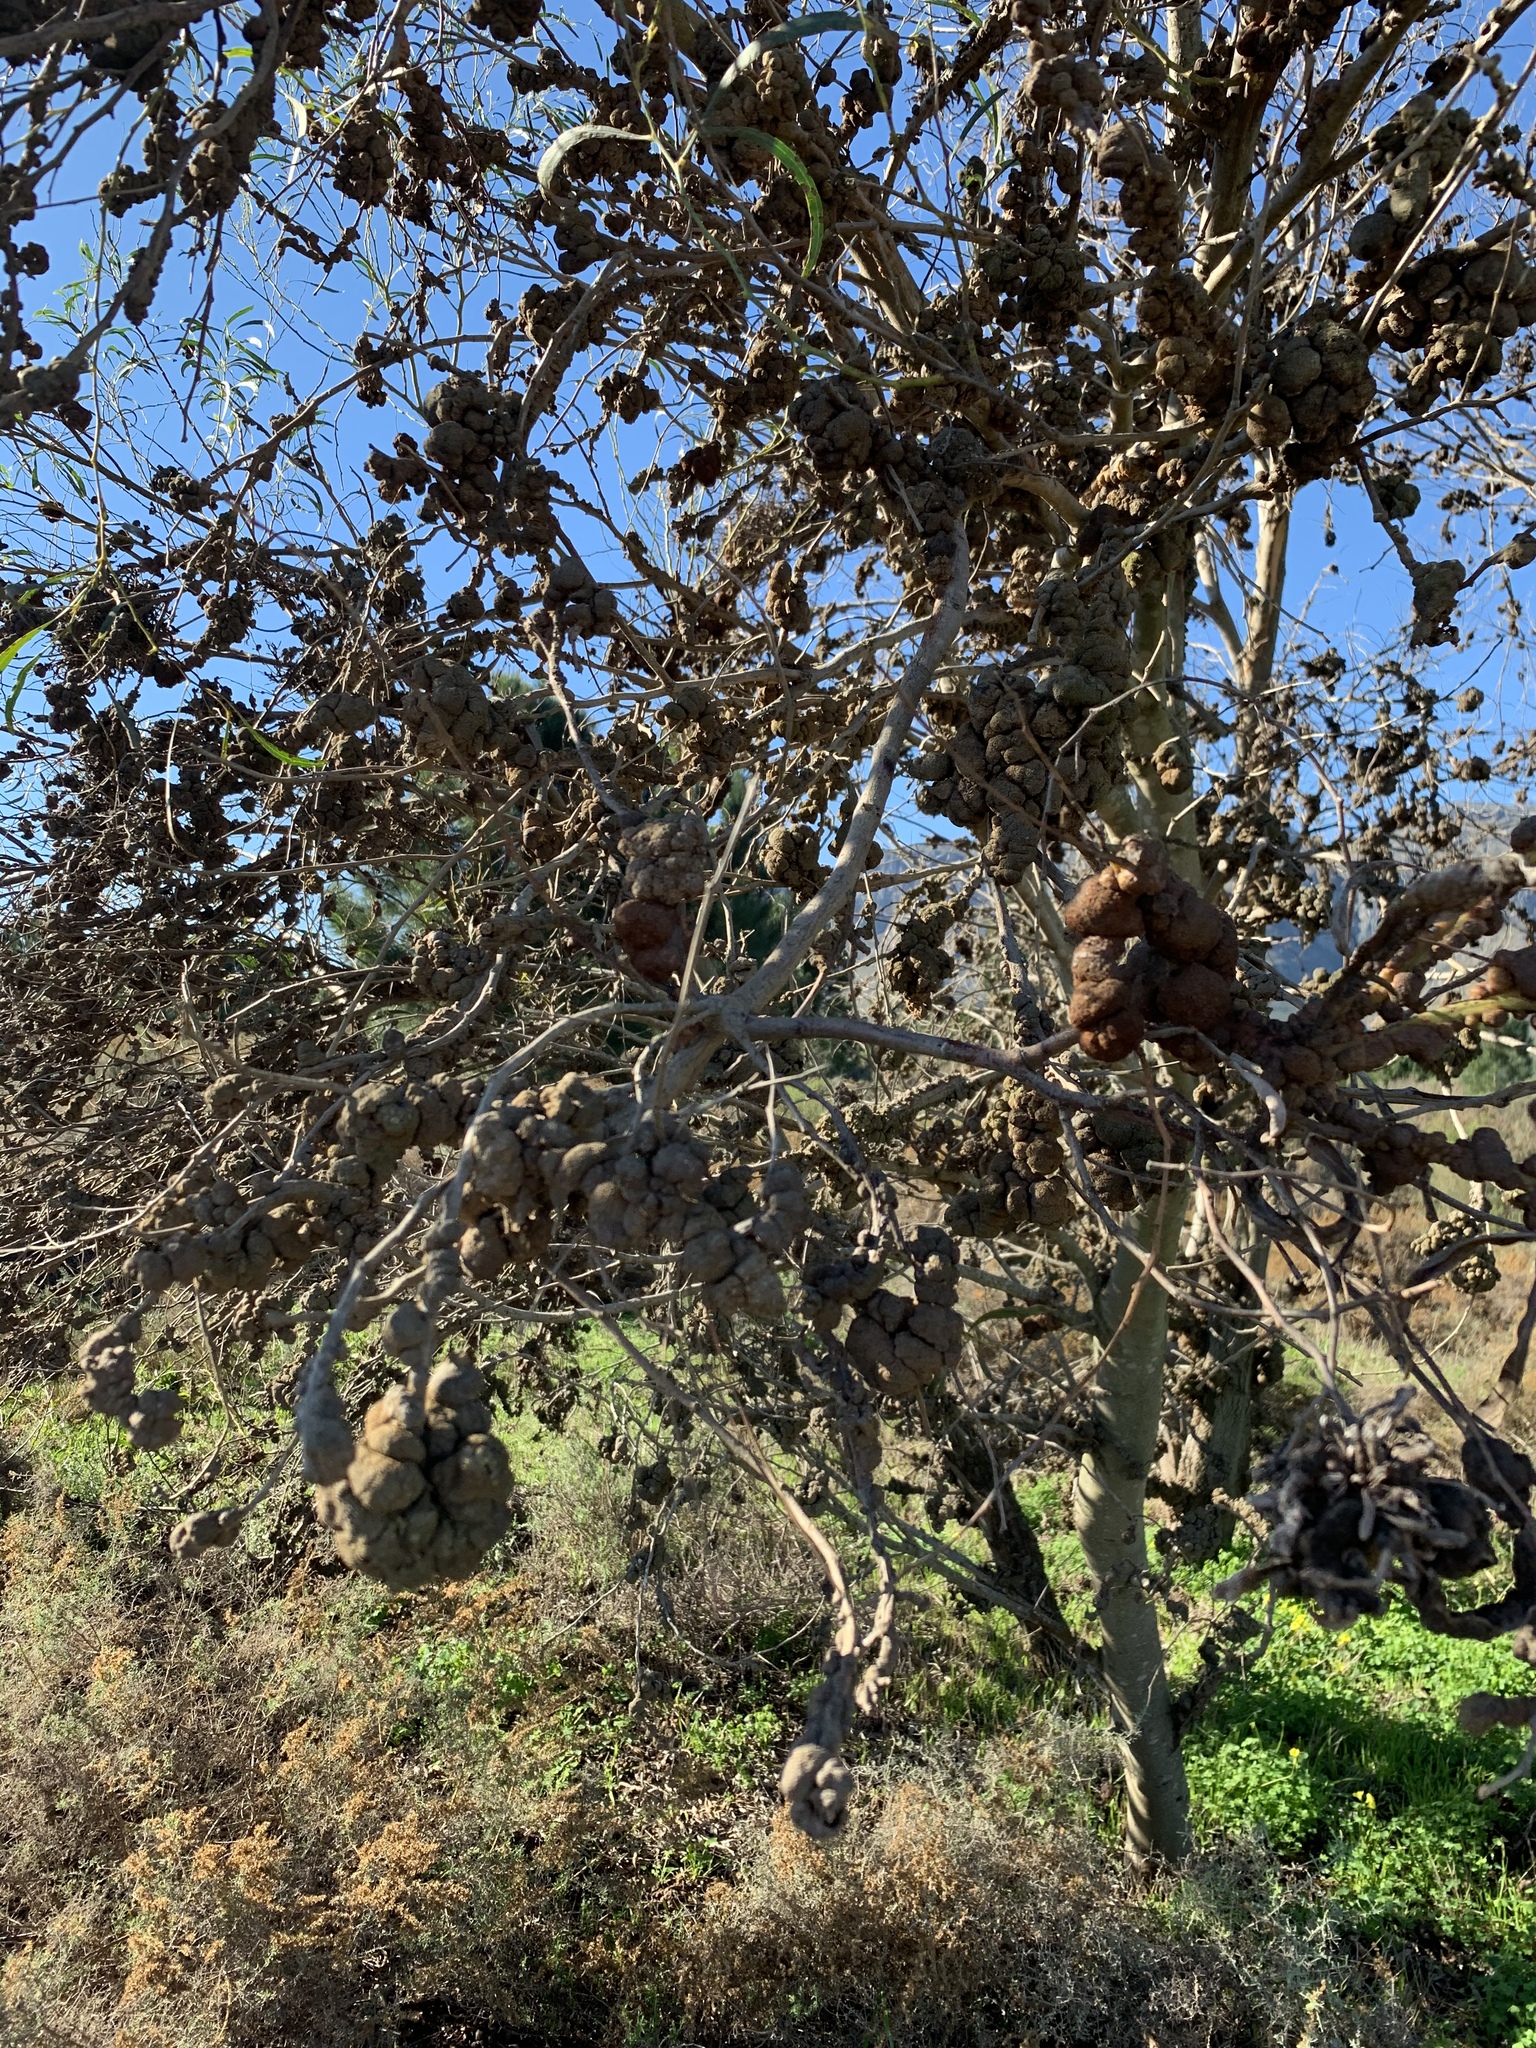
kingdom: Fungi
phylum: Basidiomycota
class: Pucciniomycetes
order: Pucciniales
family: Uromycladiaceae
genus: Uromycladium
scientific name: Uromycladium morrisii
